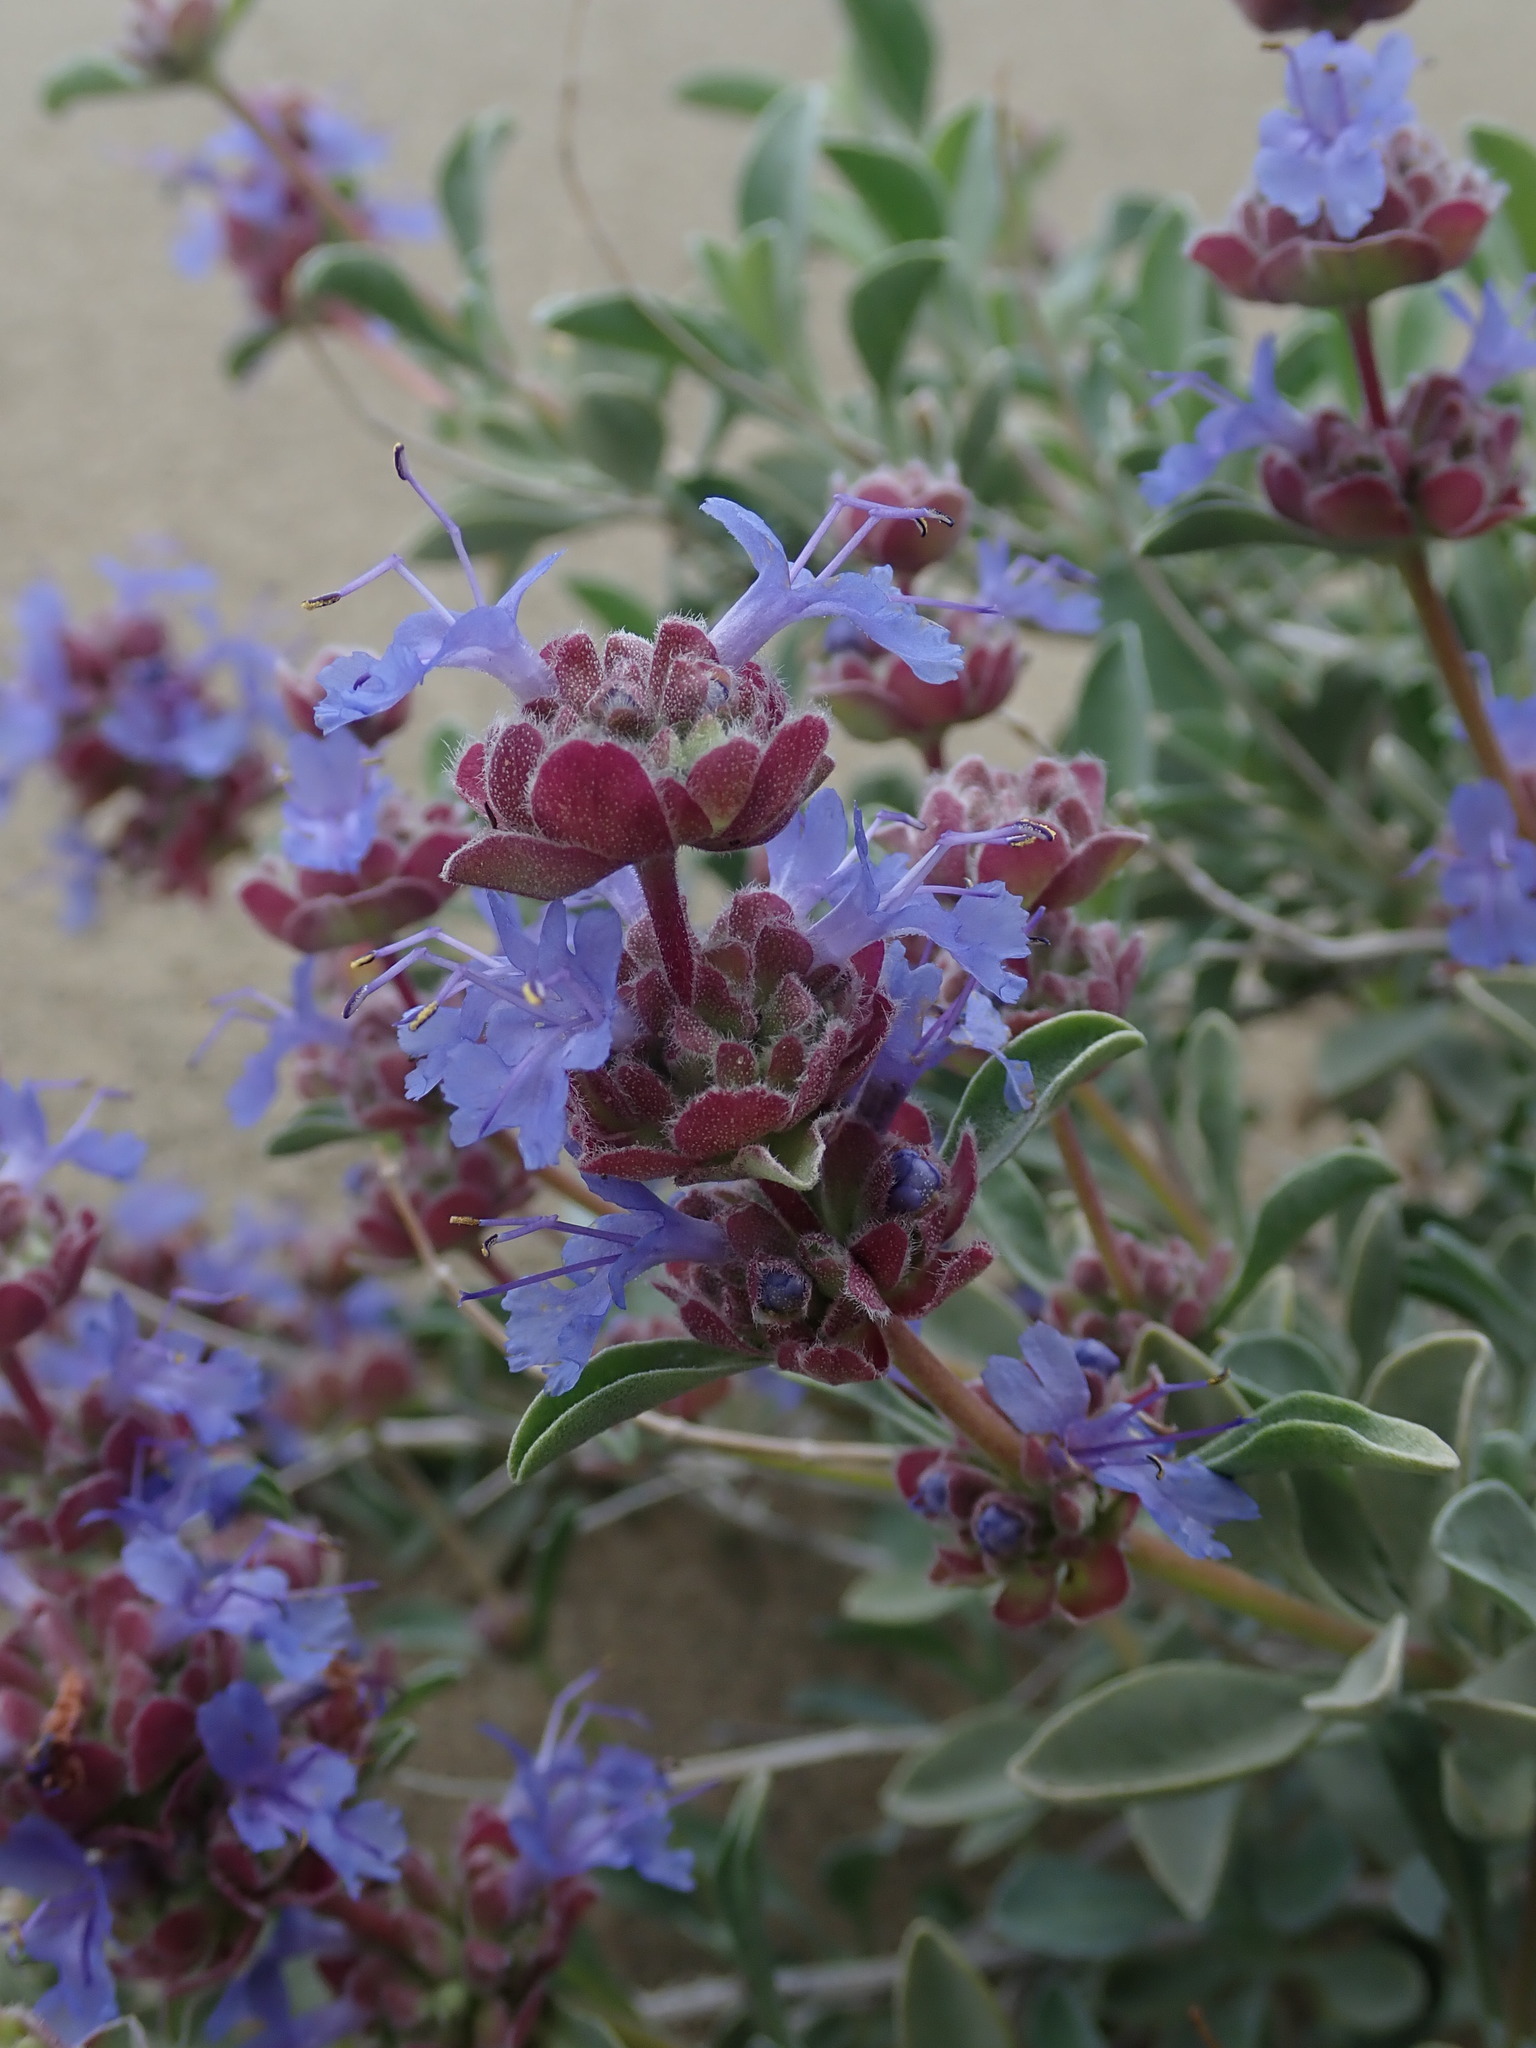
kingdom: Plantae
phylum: Tracheophyta
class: Magnoliopsida
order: Lamiales
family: Lamiaceae
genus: Salvia
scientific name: Salvia dorrii
